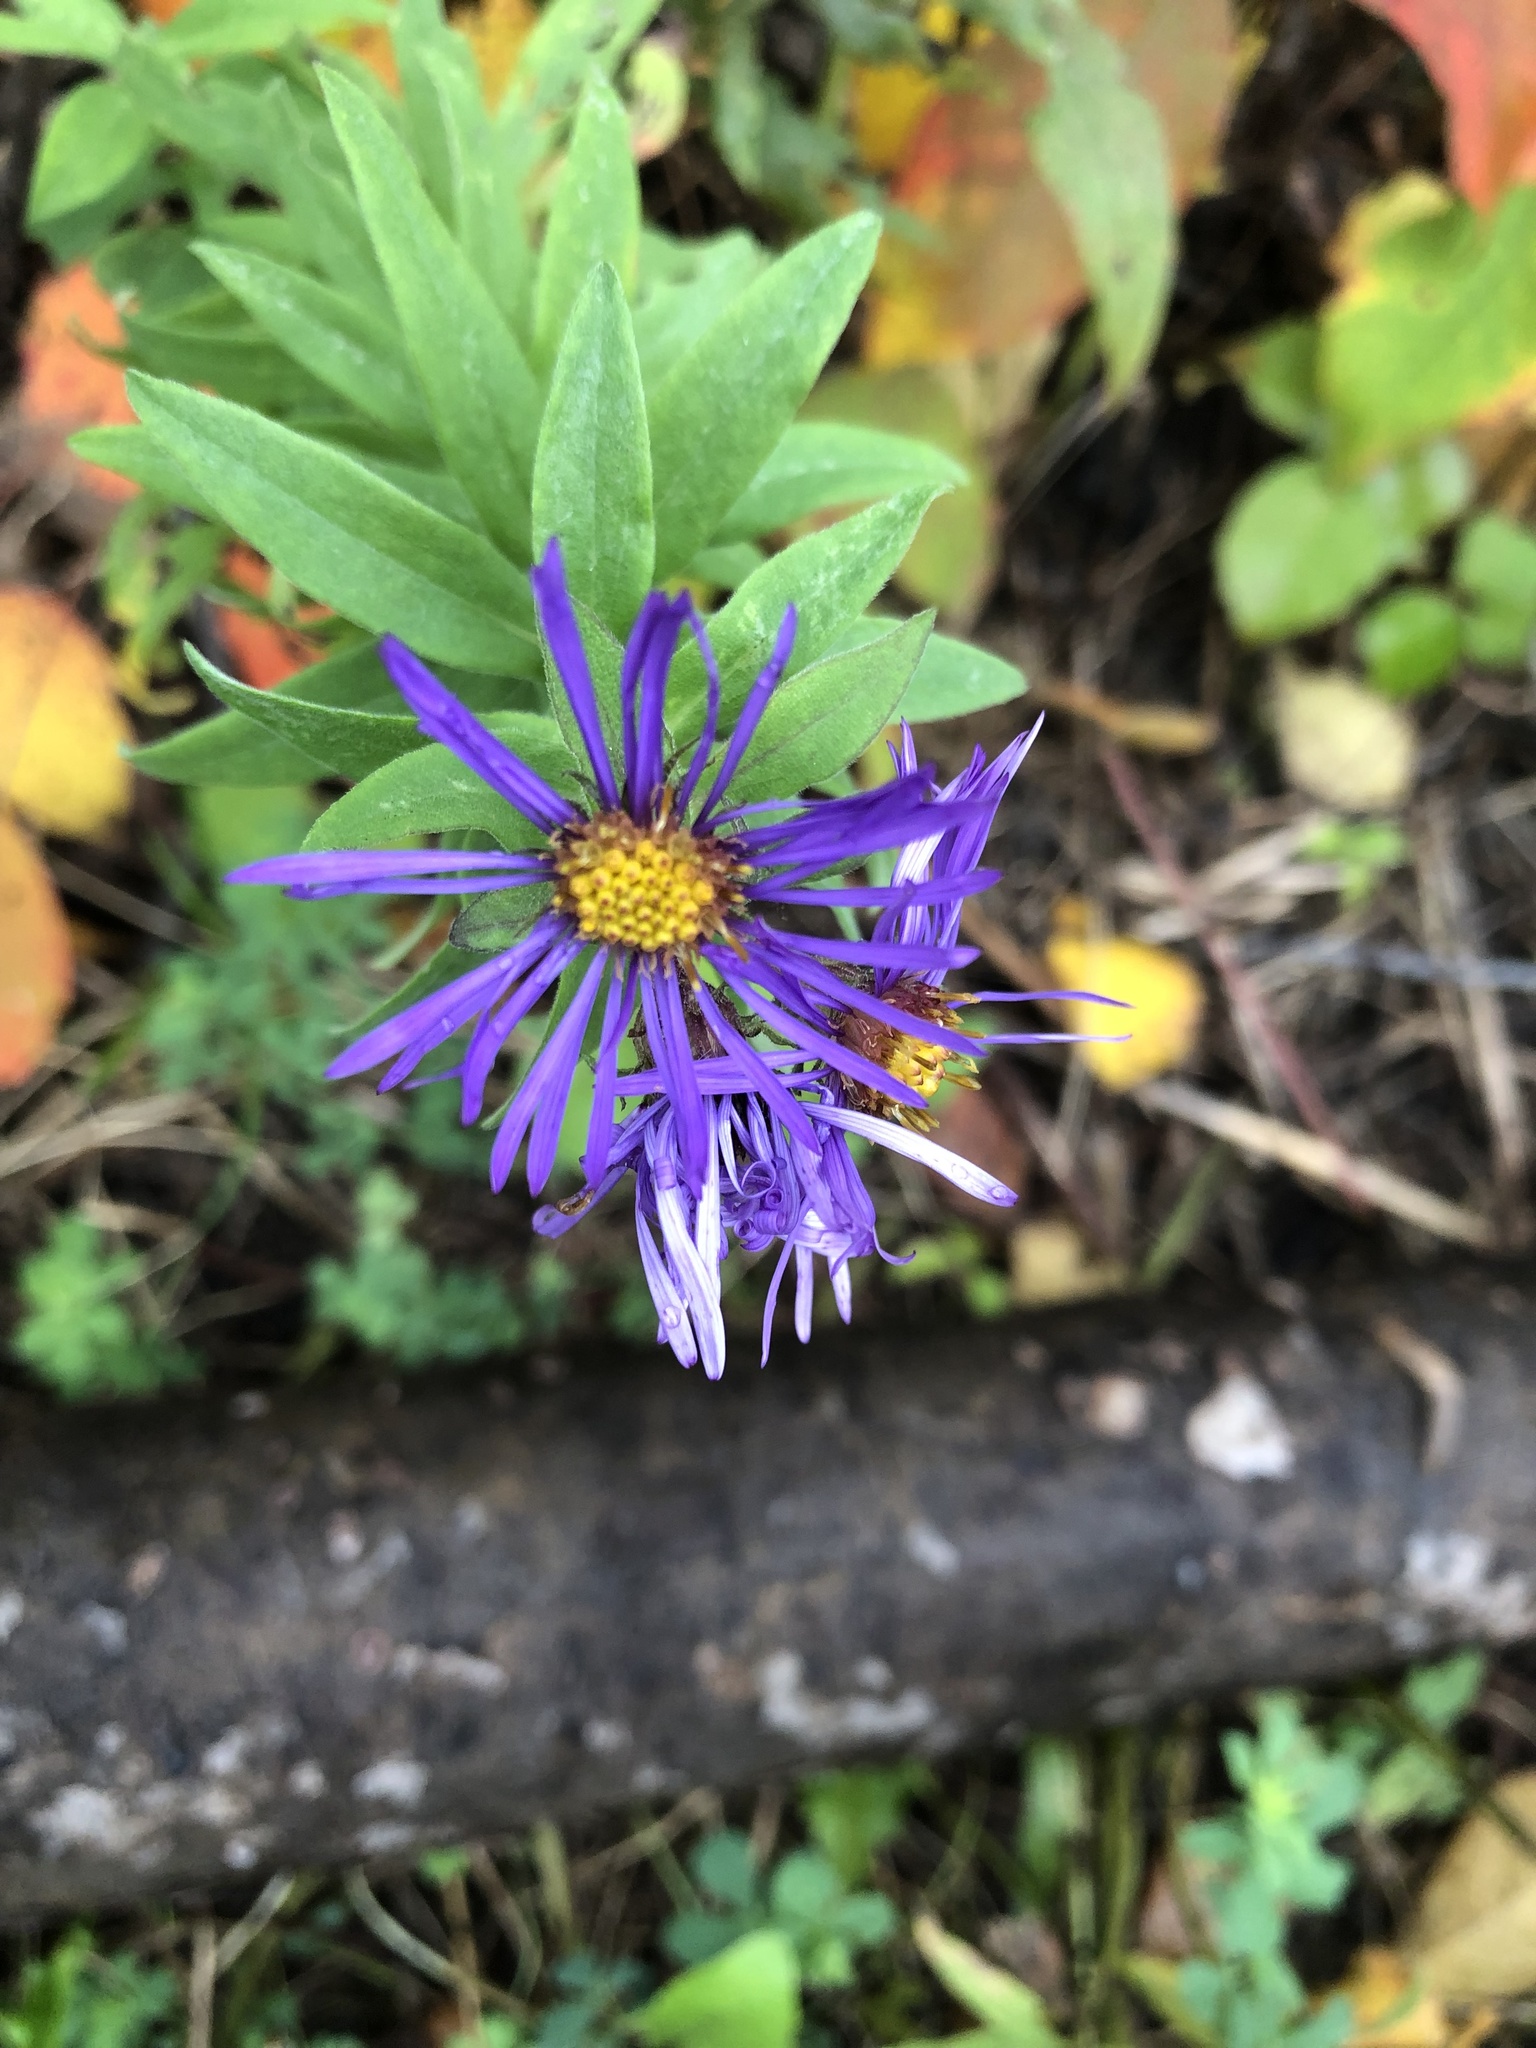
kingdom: Plantae
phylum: Tracheophyta
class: Magnoliopsida
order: Asterales
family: Asteraceae
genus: Symphyotrichum
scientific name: Symphyotrichum novae-angliae
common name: Michaelmas daisy
